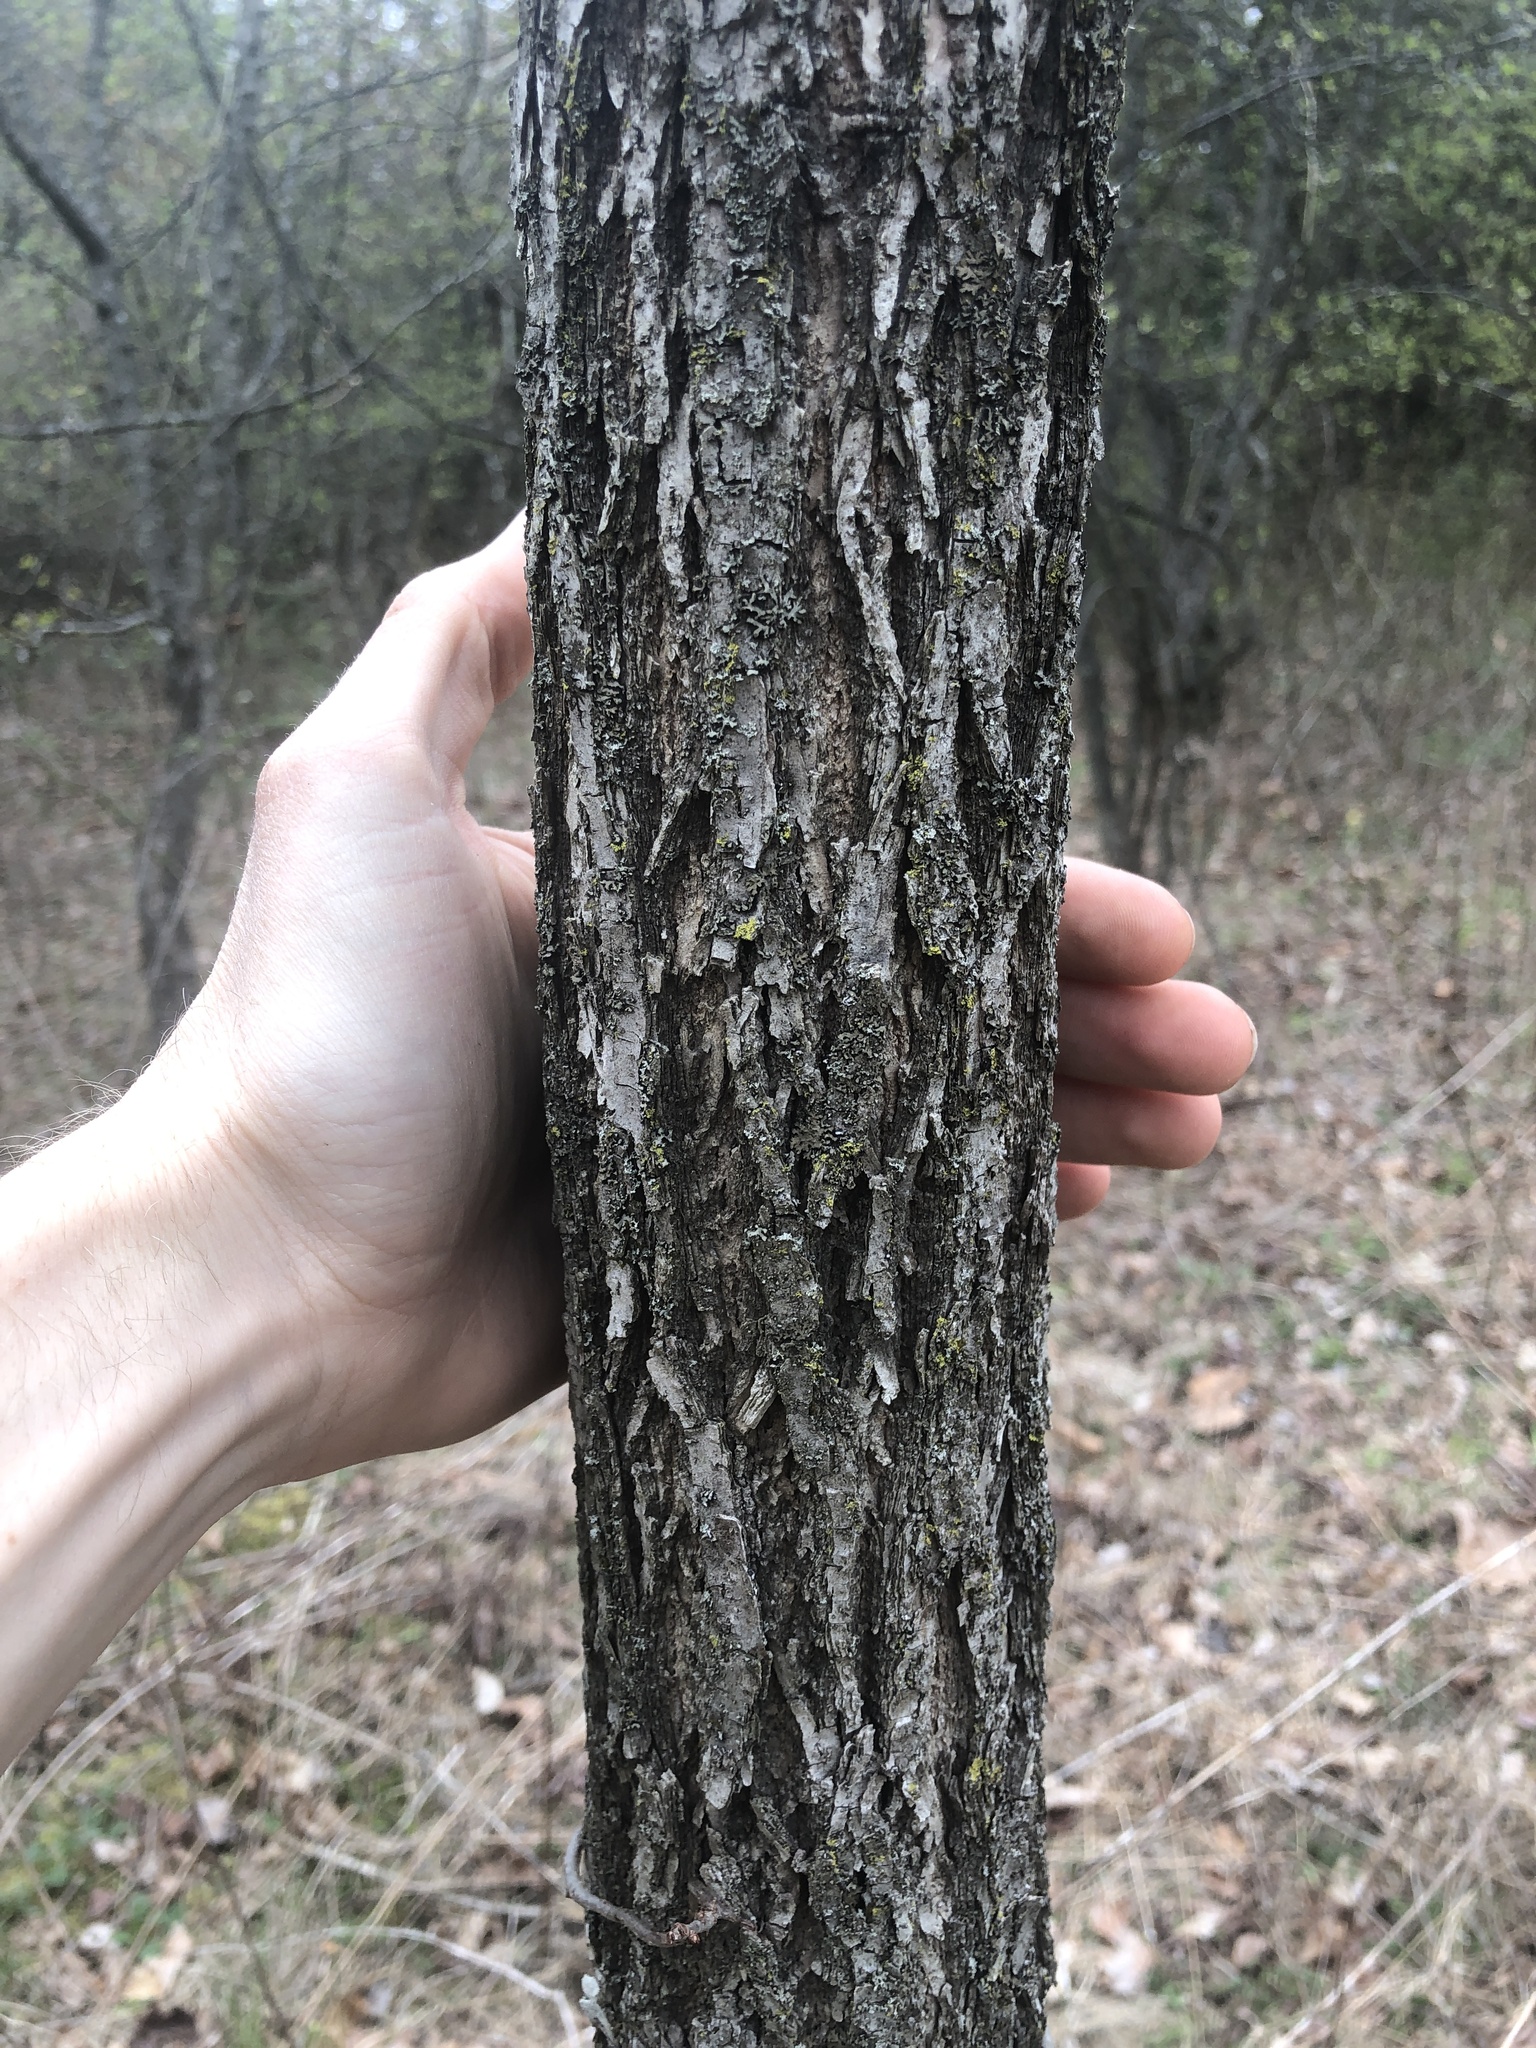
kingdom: Plantae
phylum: Tracheophyta
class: Magnoliopsida
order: Fagales
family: Juglandaceae
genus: Juglans
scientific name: Juglans nigra
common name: Black walnut
